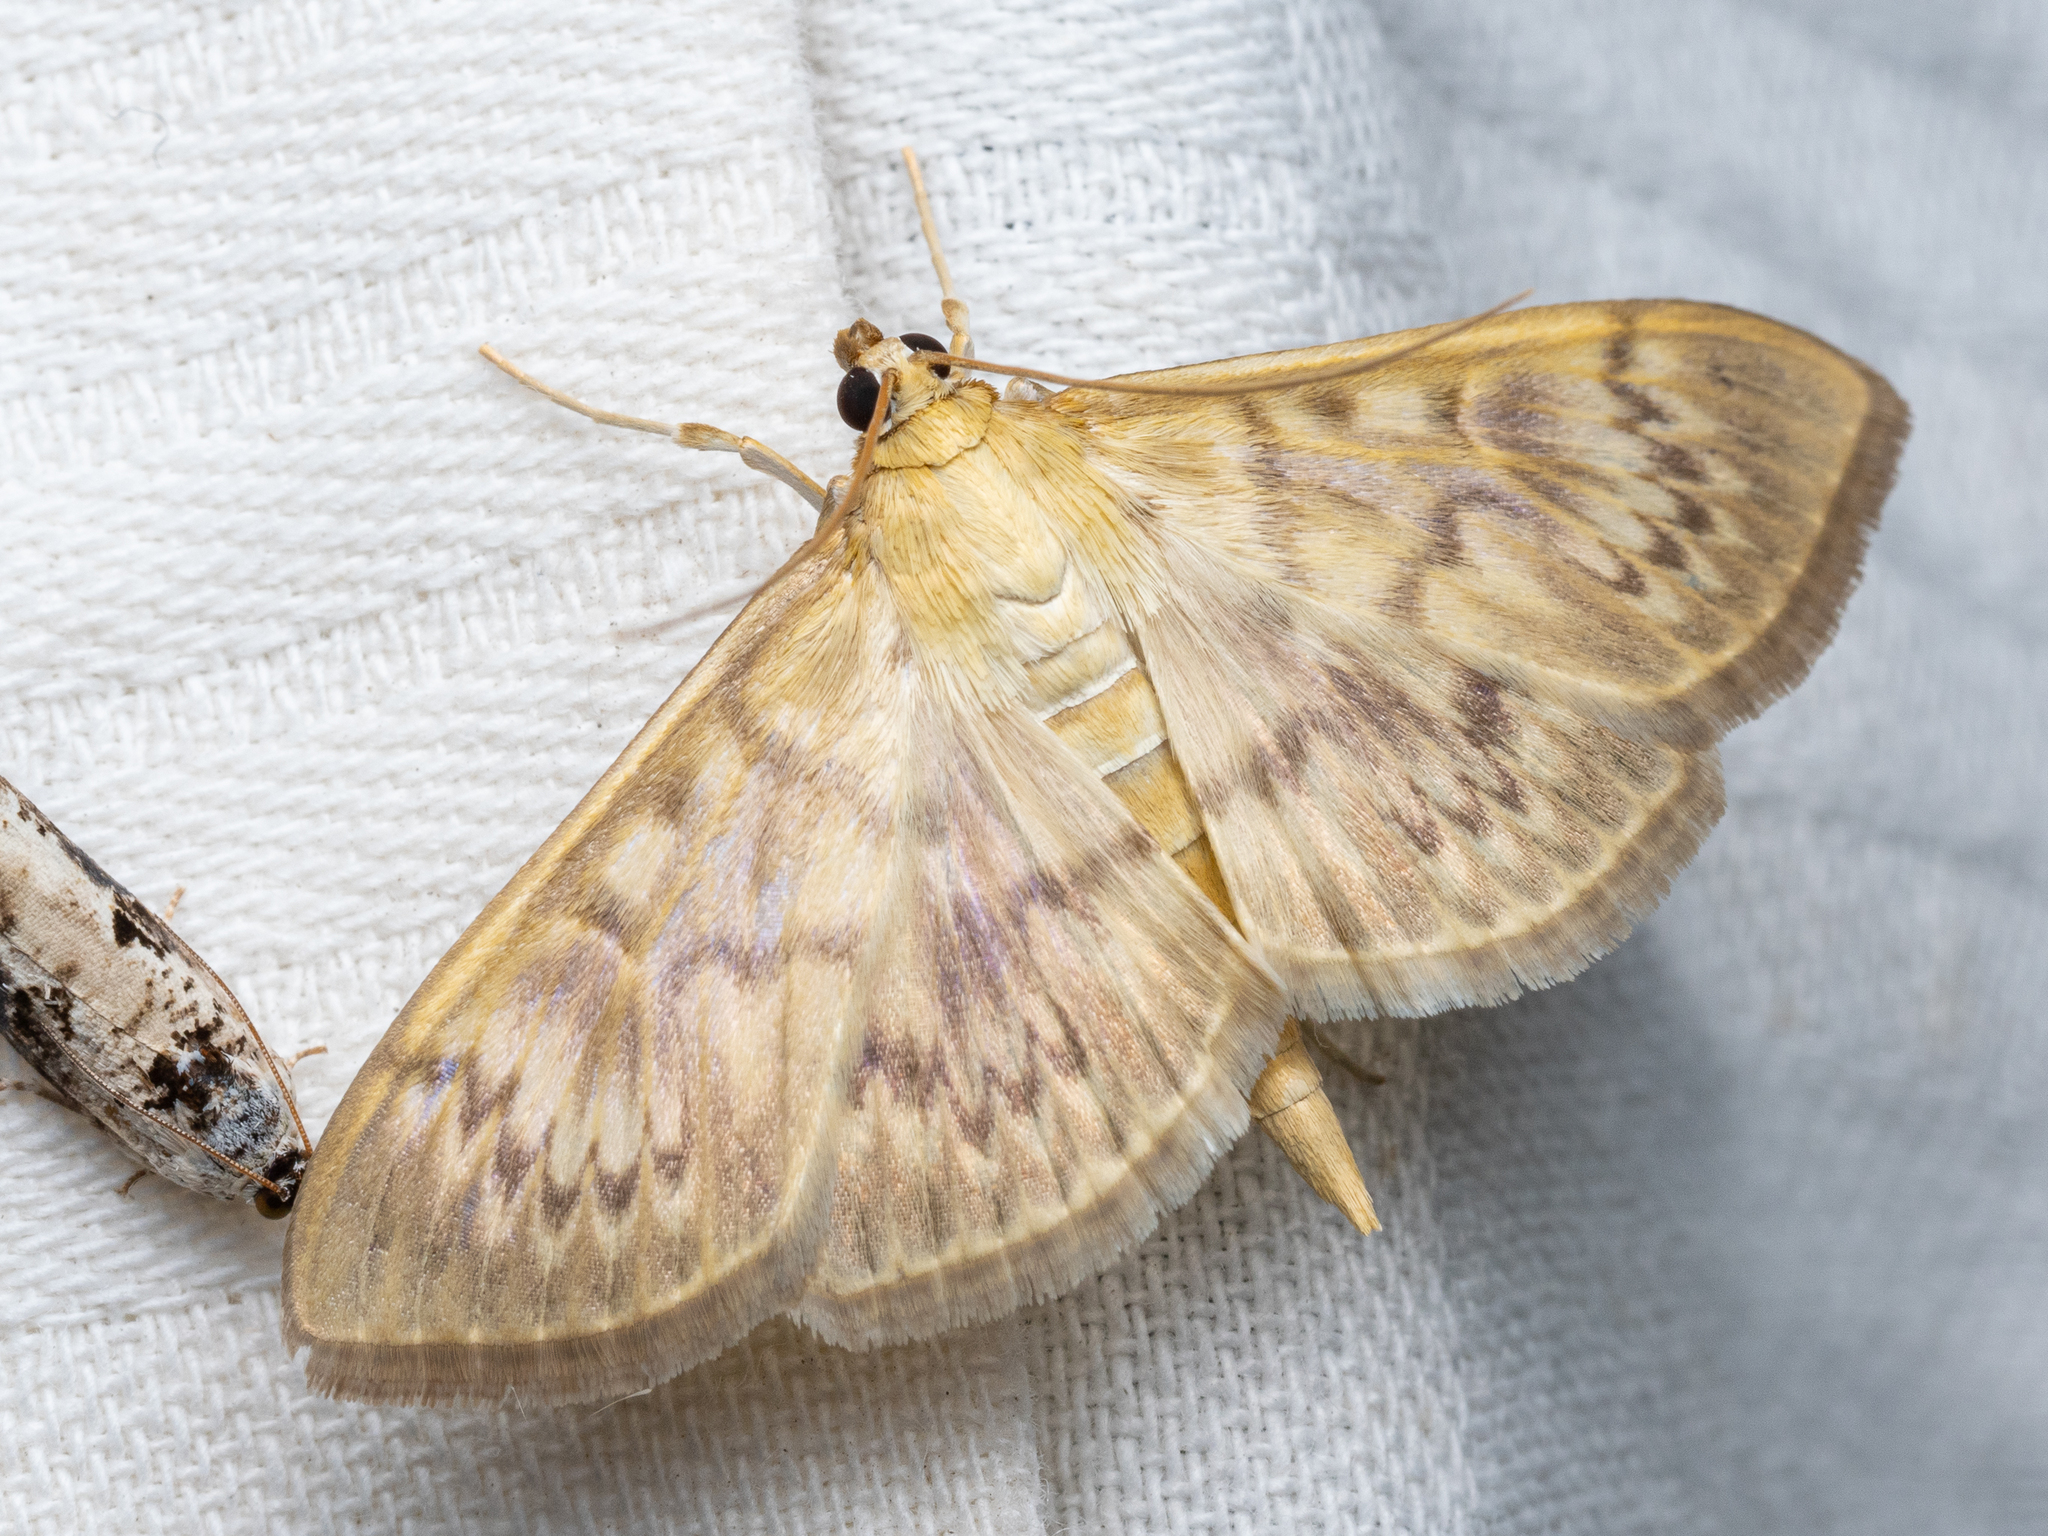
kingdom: Animalia
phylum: Arthropoda
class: Insecta
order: Lepidoptera
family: Crambidae
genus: Patania
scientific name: Patania ruralis
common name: Mother of pearl
